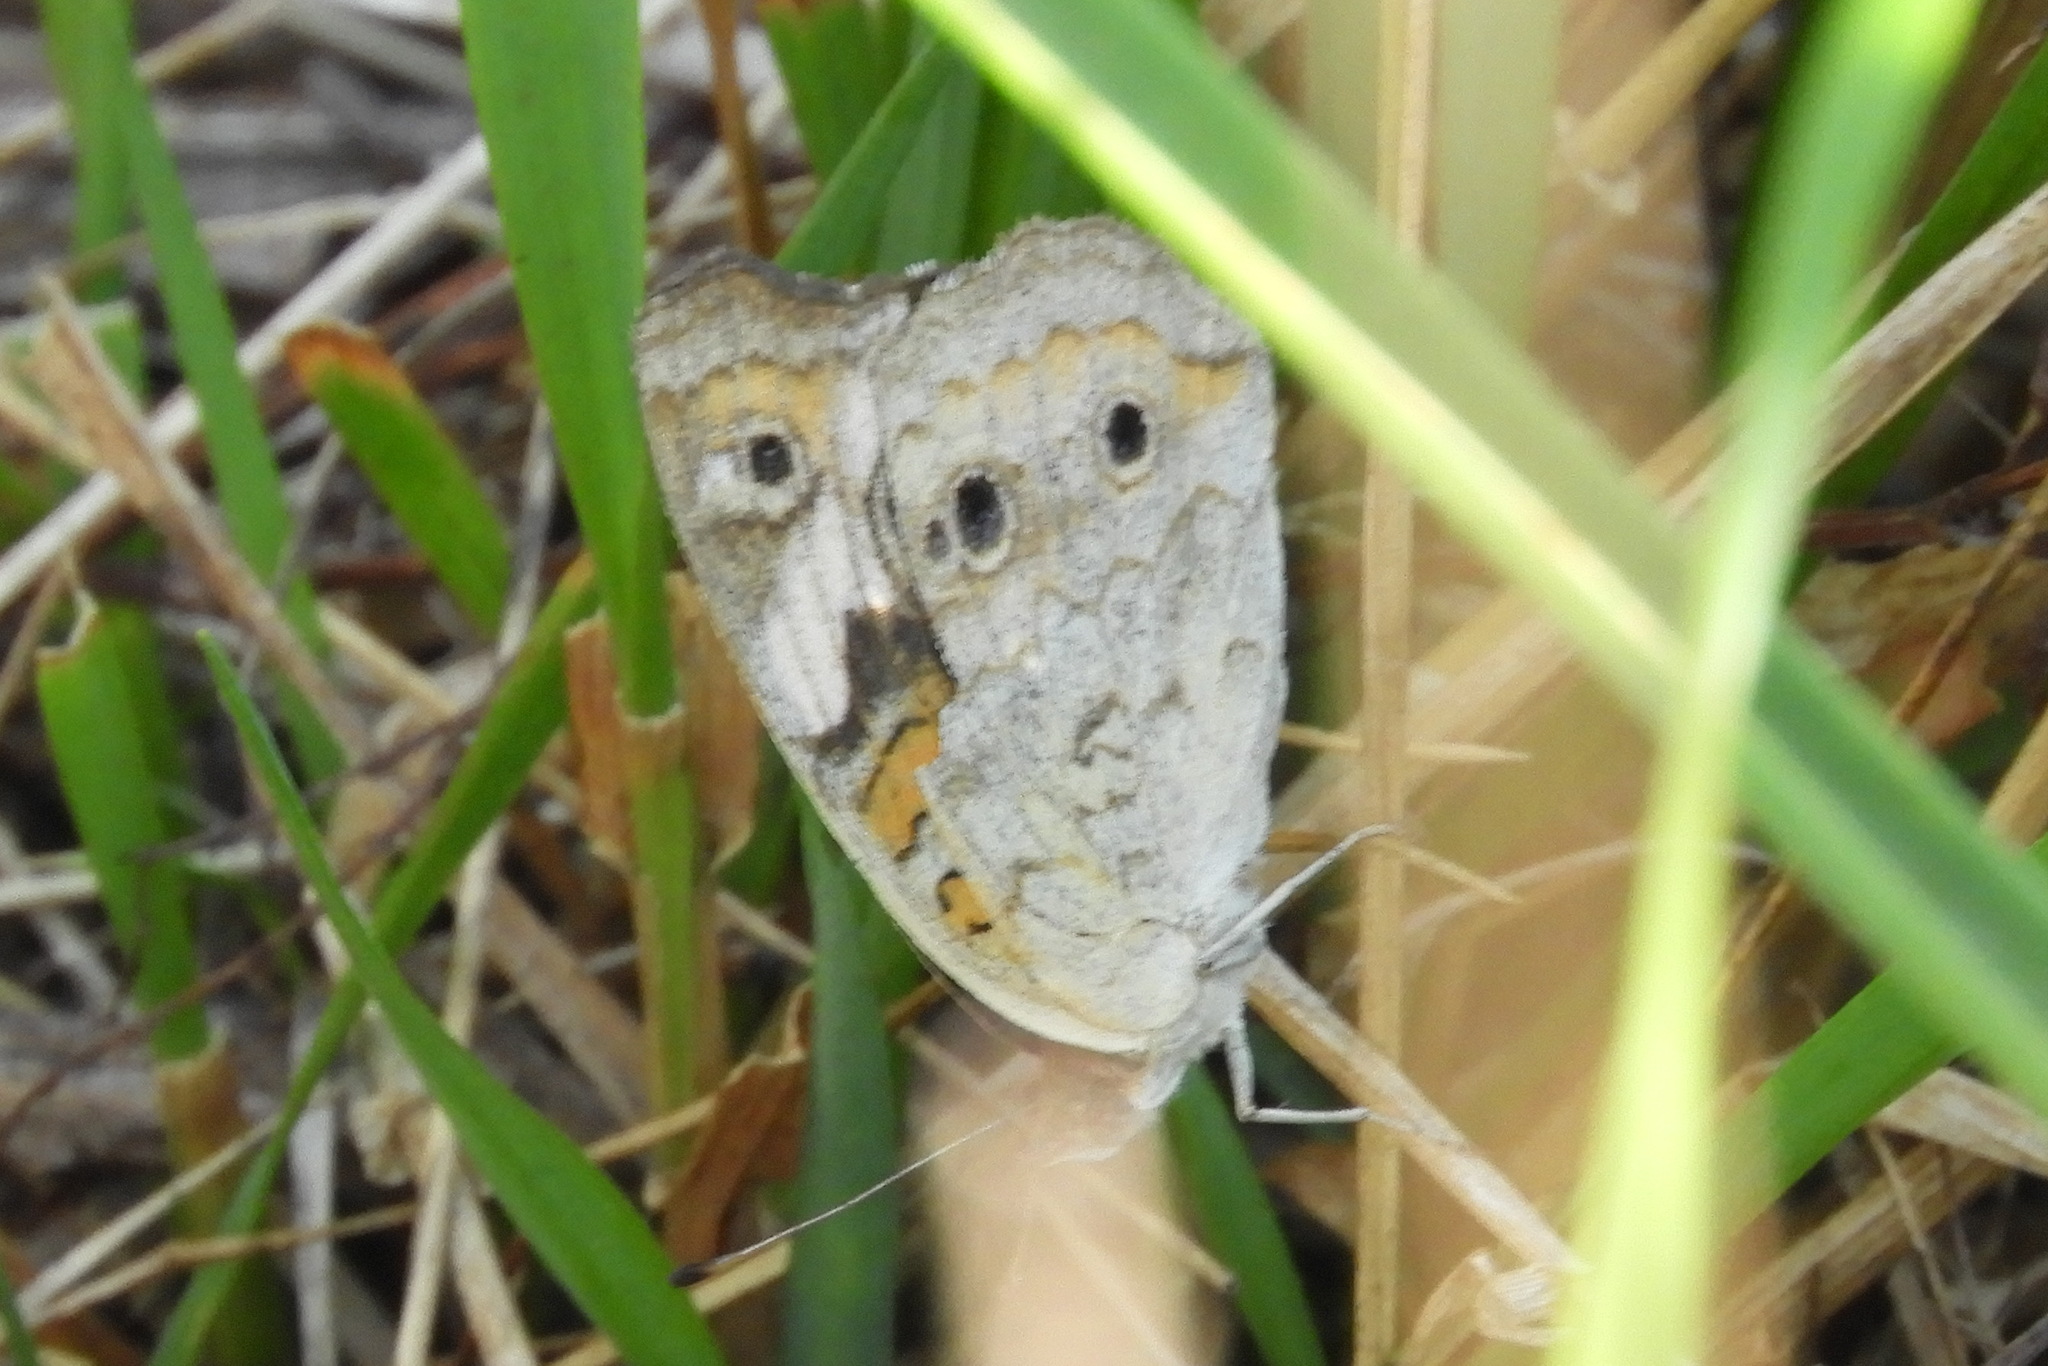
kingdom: Animalia
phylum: Arthropoda
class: Insecta
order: Lepidoptera
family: Nymphalidae
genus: Junonia
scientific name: Junonia coenia
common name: Common buckeye
